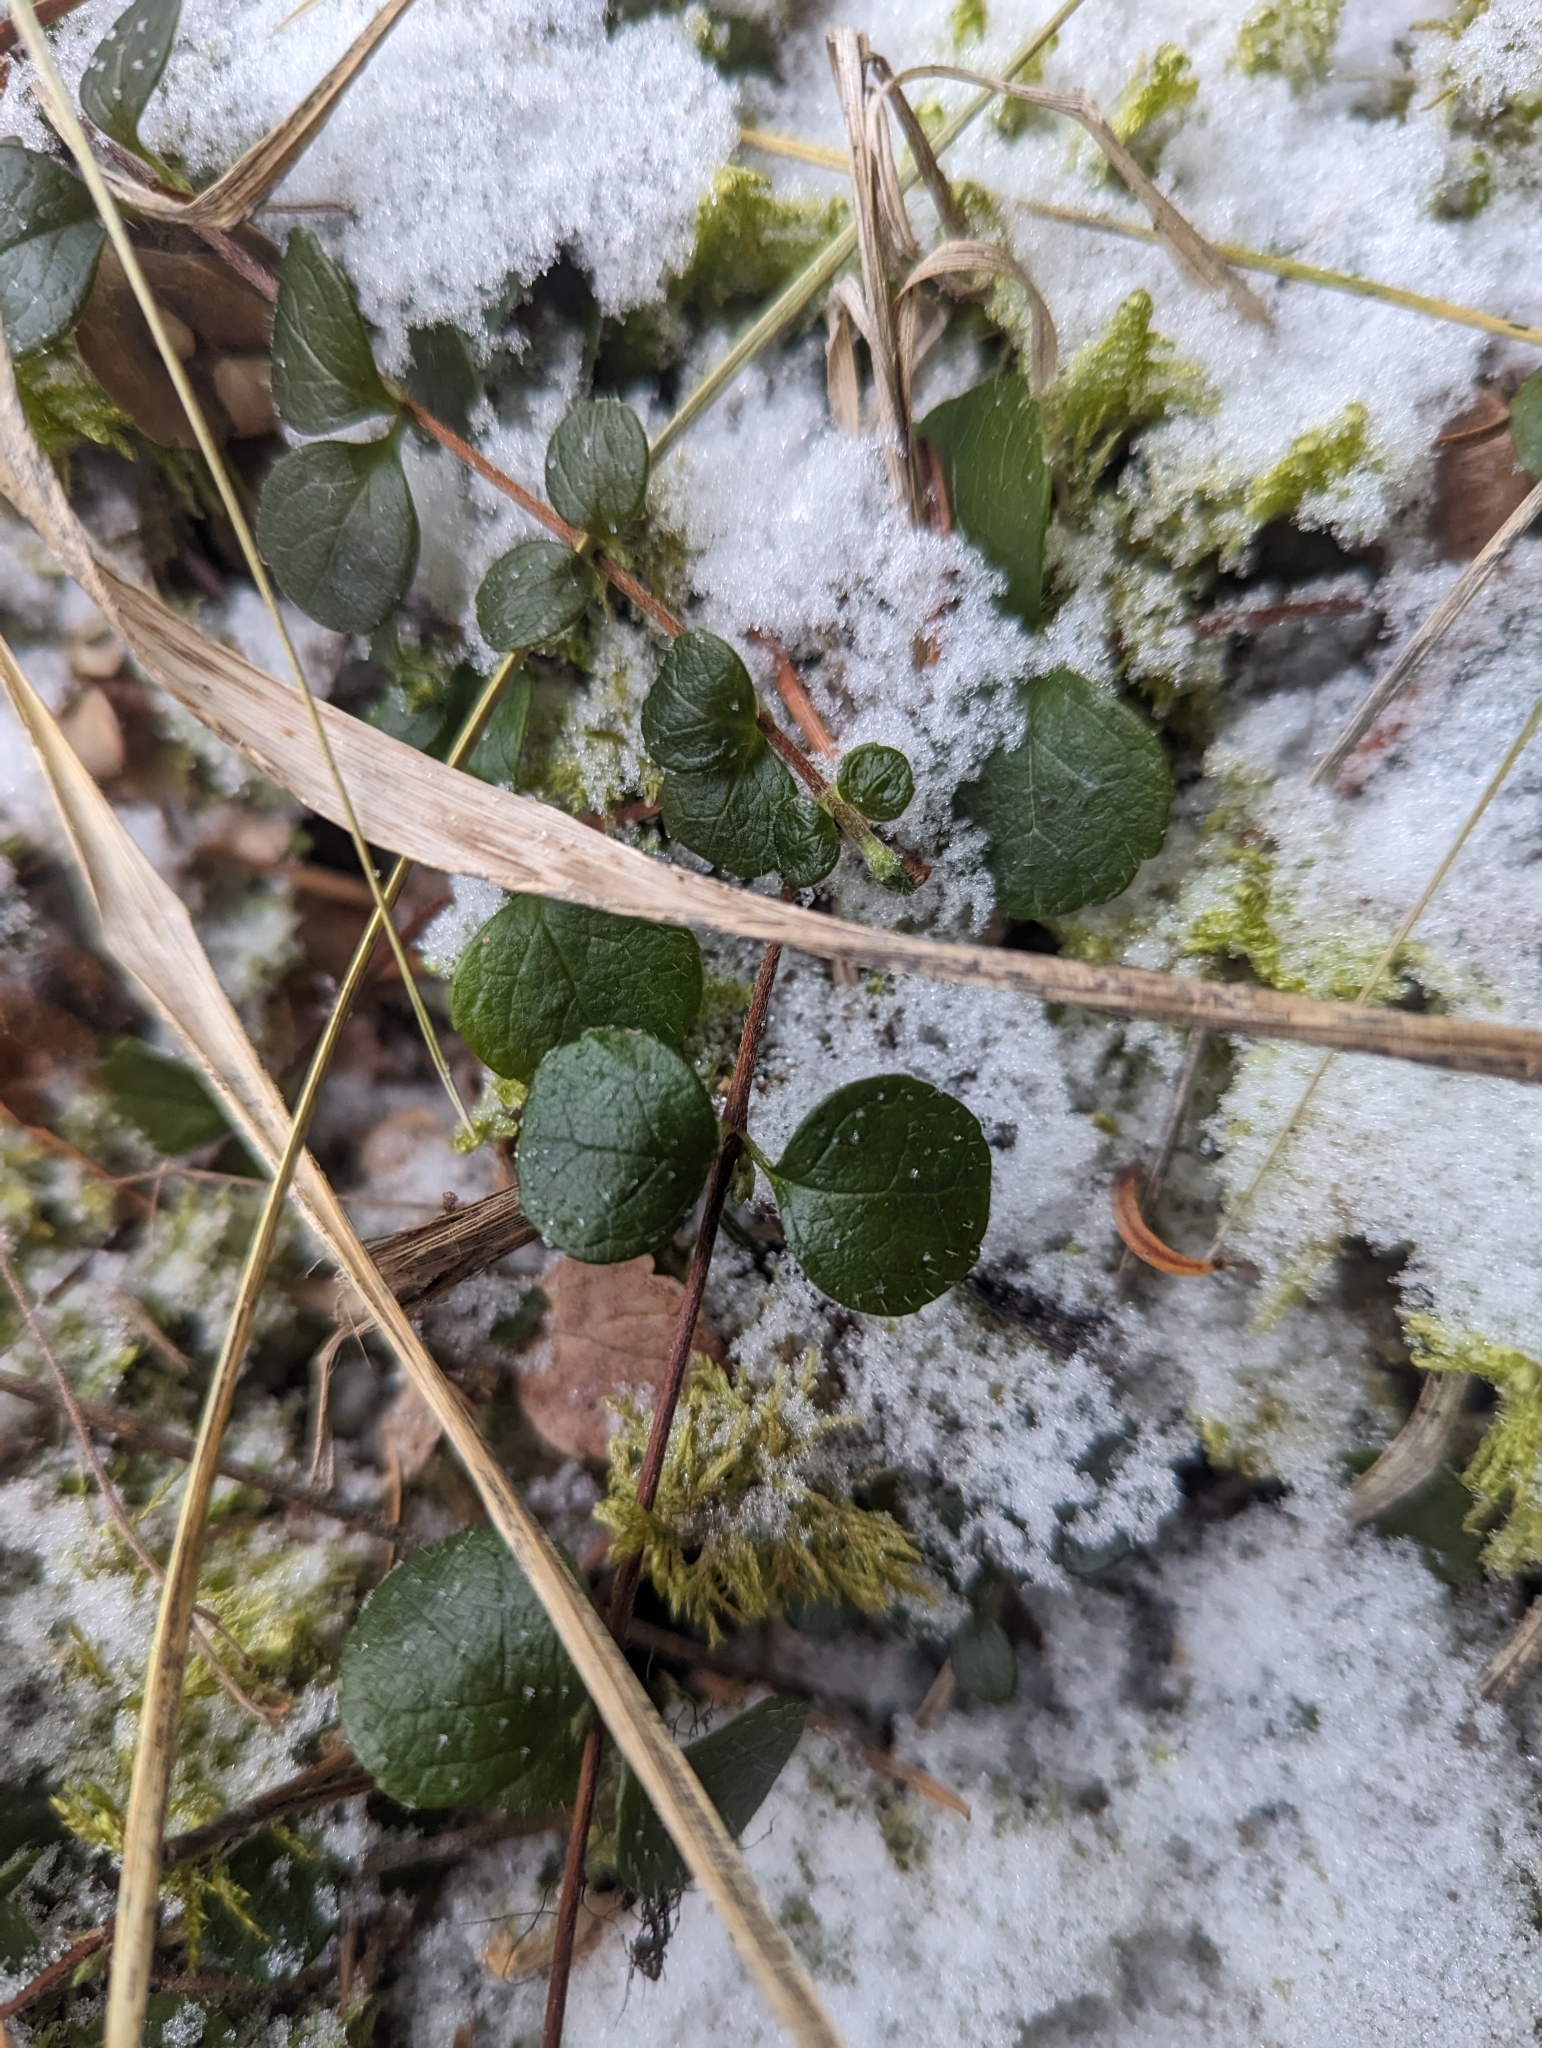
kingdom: Plantae
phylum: Tracheophyta
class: Magnoliopsida
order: Dipsacales
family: Caprifoliaceae
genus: Linnaea
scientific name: Linnaea borealis
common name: Twinflower
